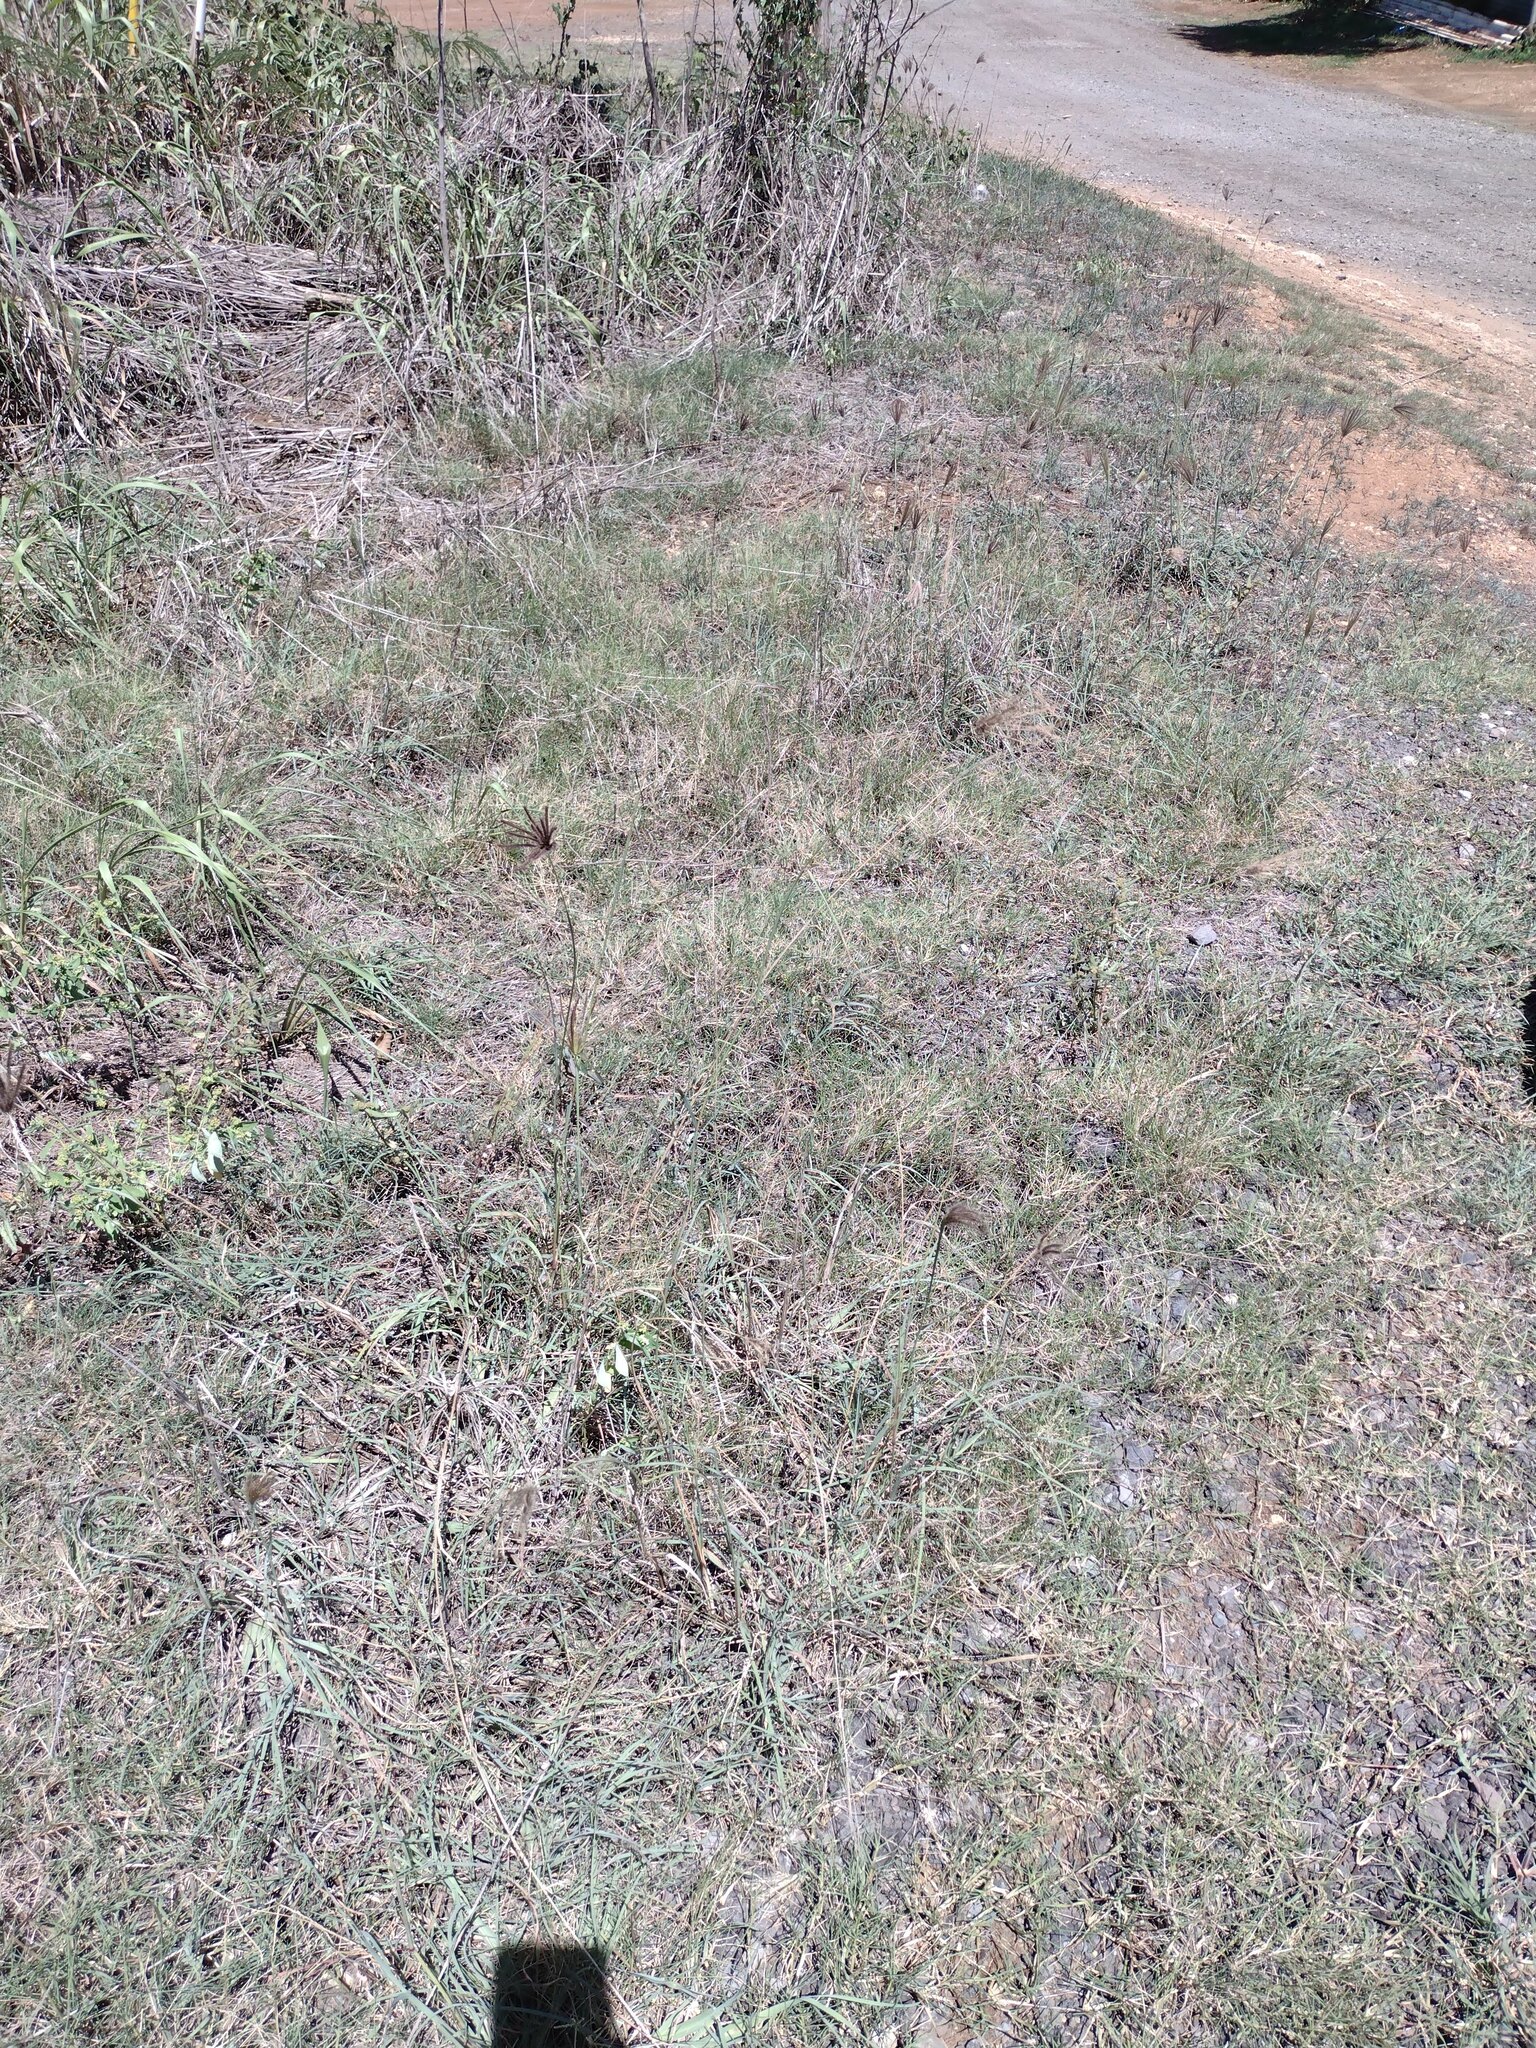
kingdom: Plantae
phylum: Tracheophyta
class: Liliopsida
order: Poales
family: Poaceae
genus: Chloris
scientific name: Chloris barbata
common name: Swollen fingergrass
